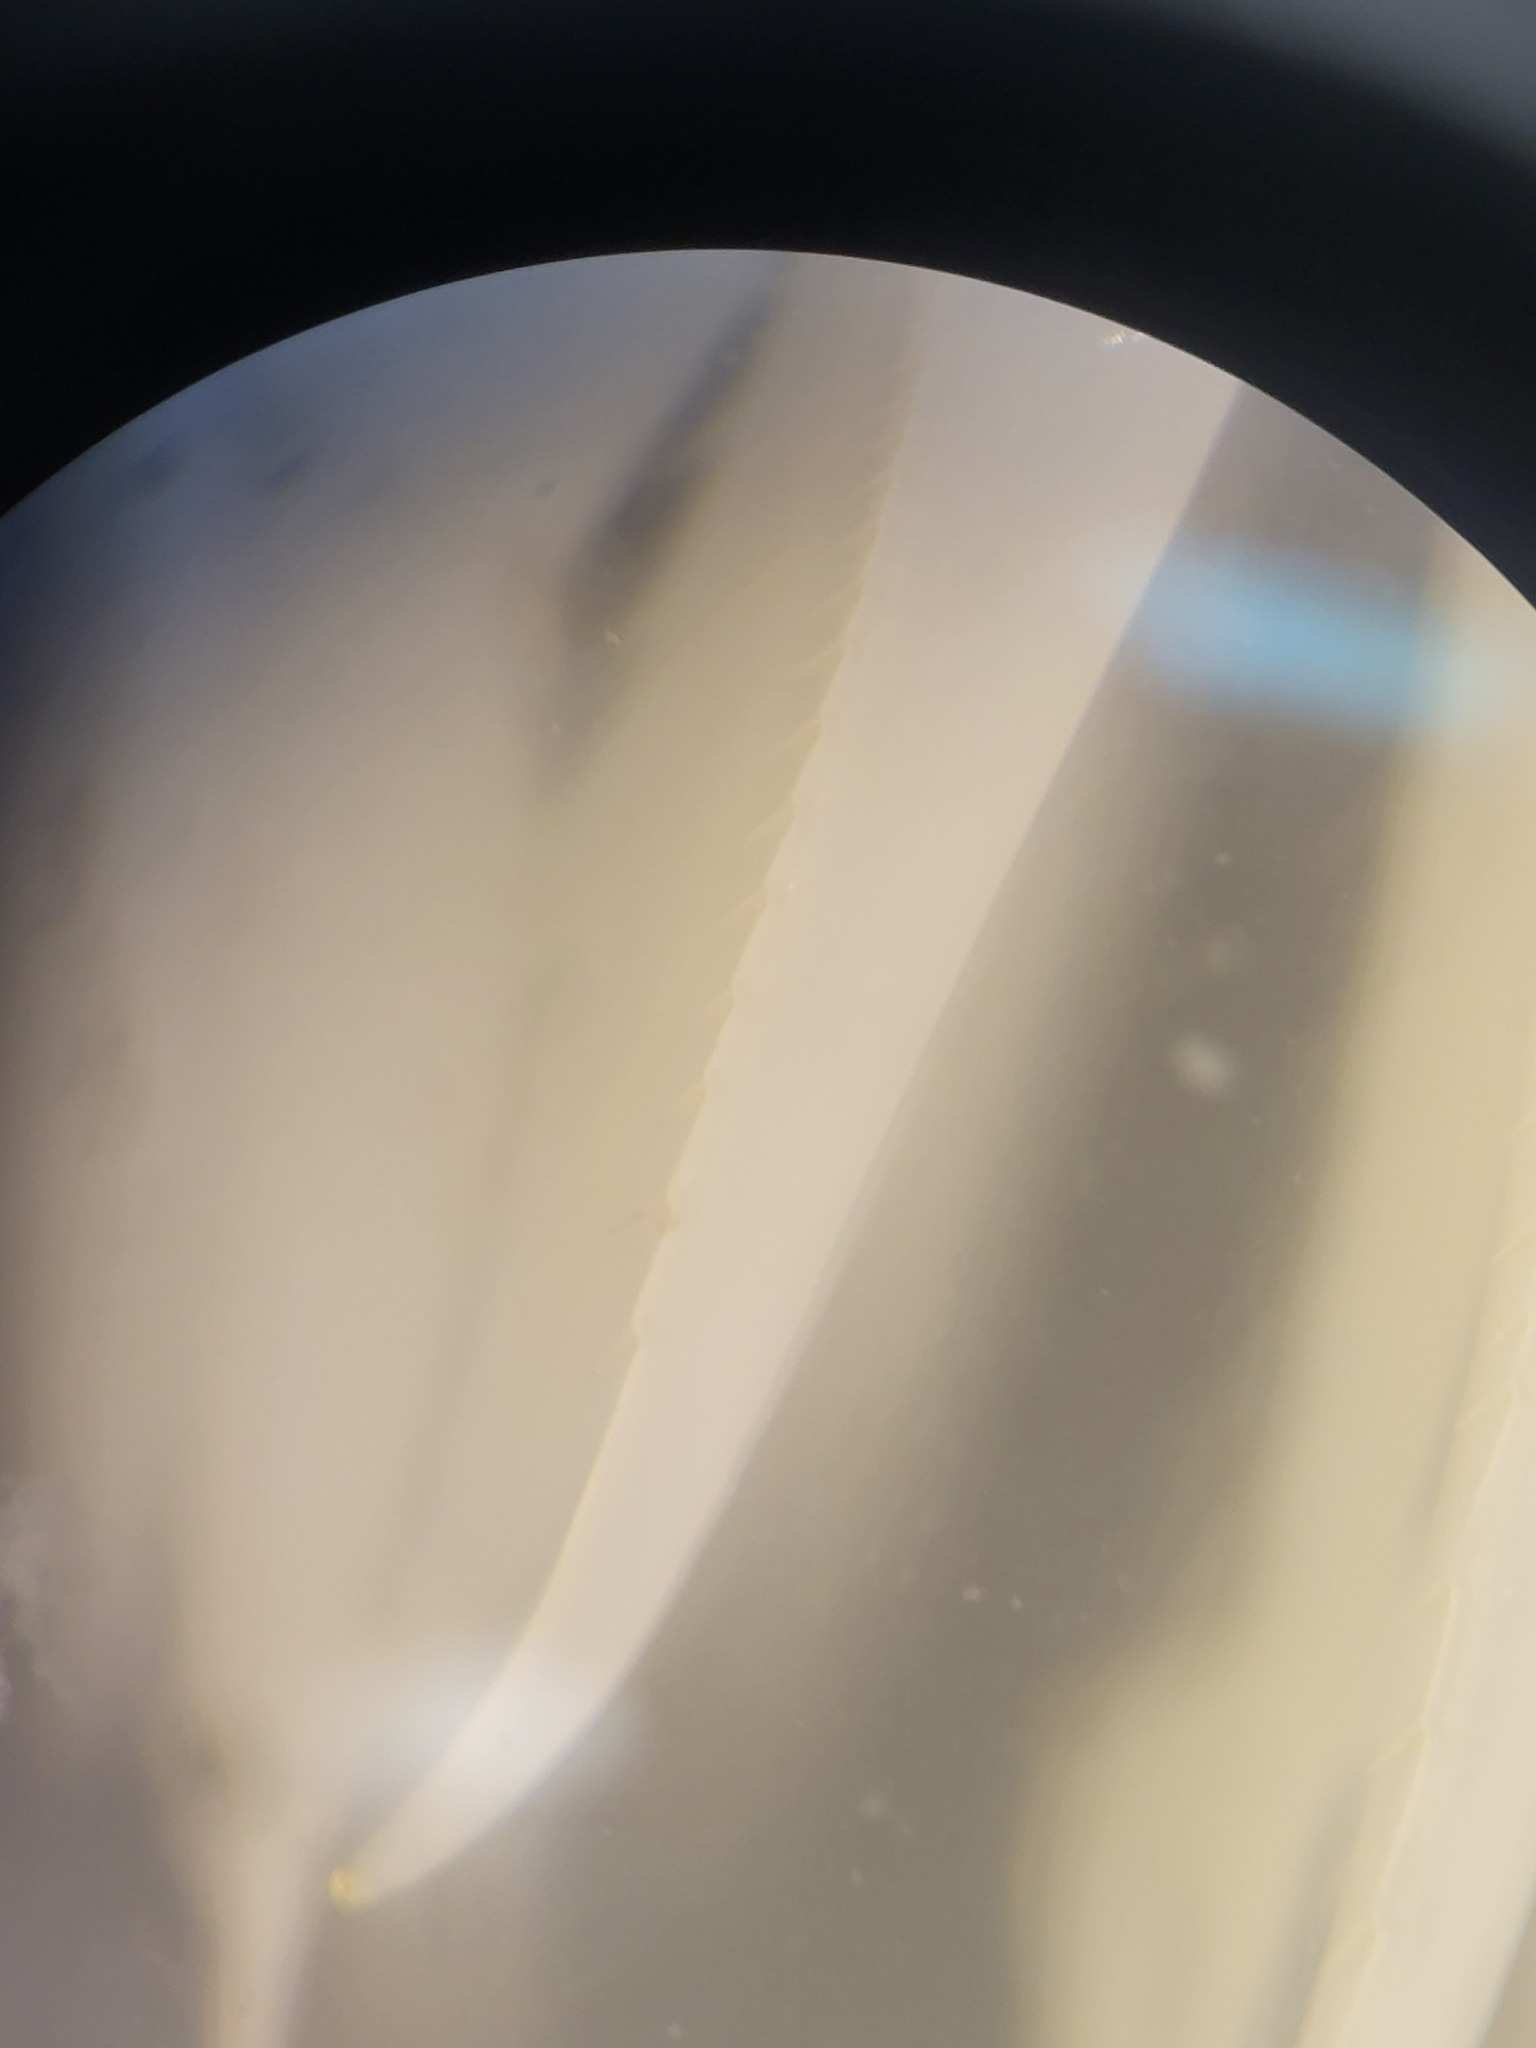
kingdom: Animalia
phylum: Arthropoda
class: Malacostraca
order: Amphipoda
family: Uristidae
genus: Anonyx
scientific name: Anonyx nugax
